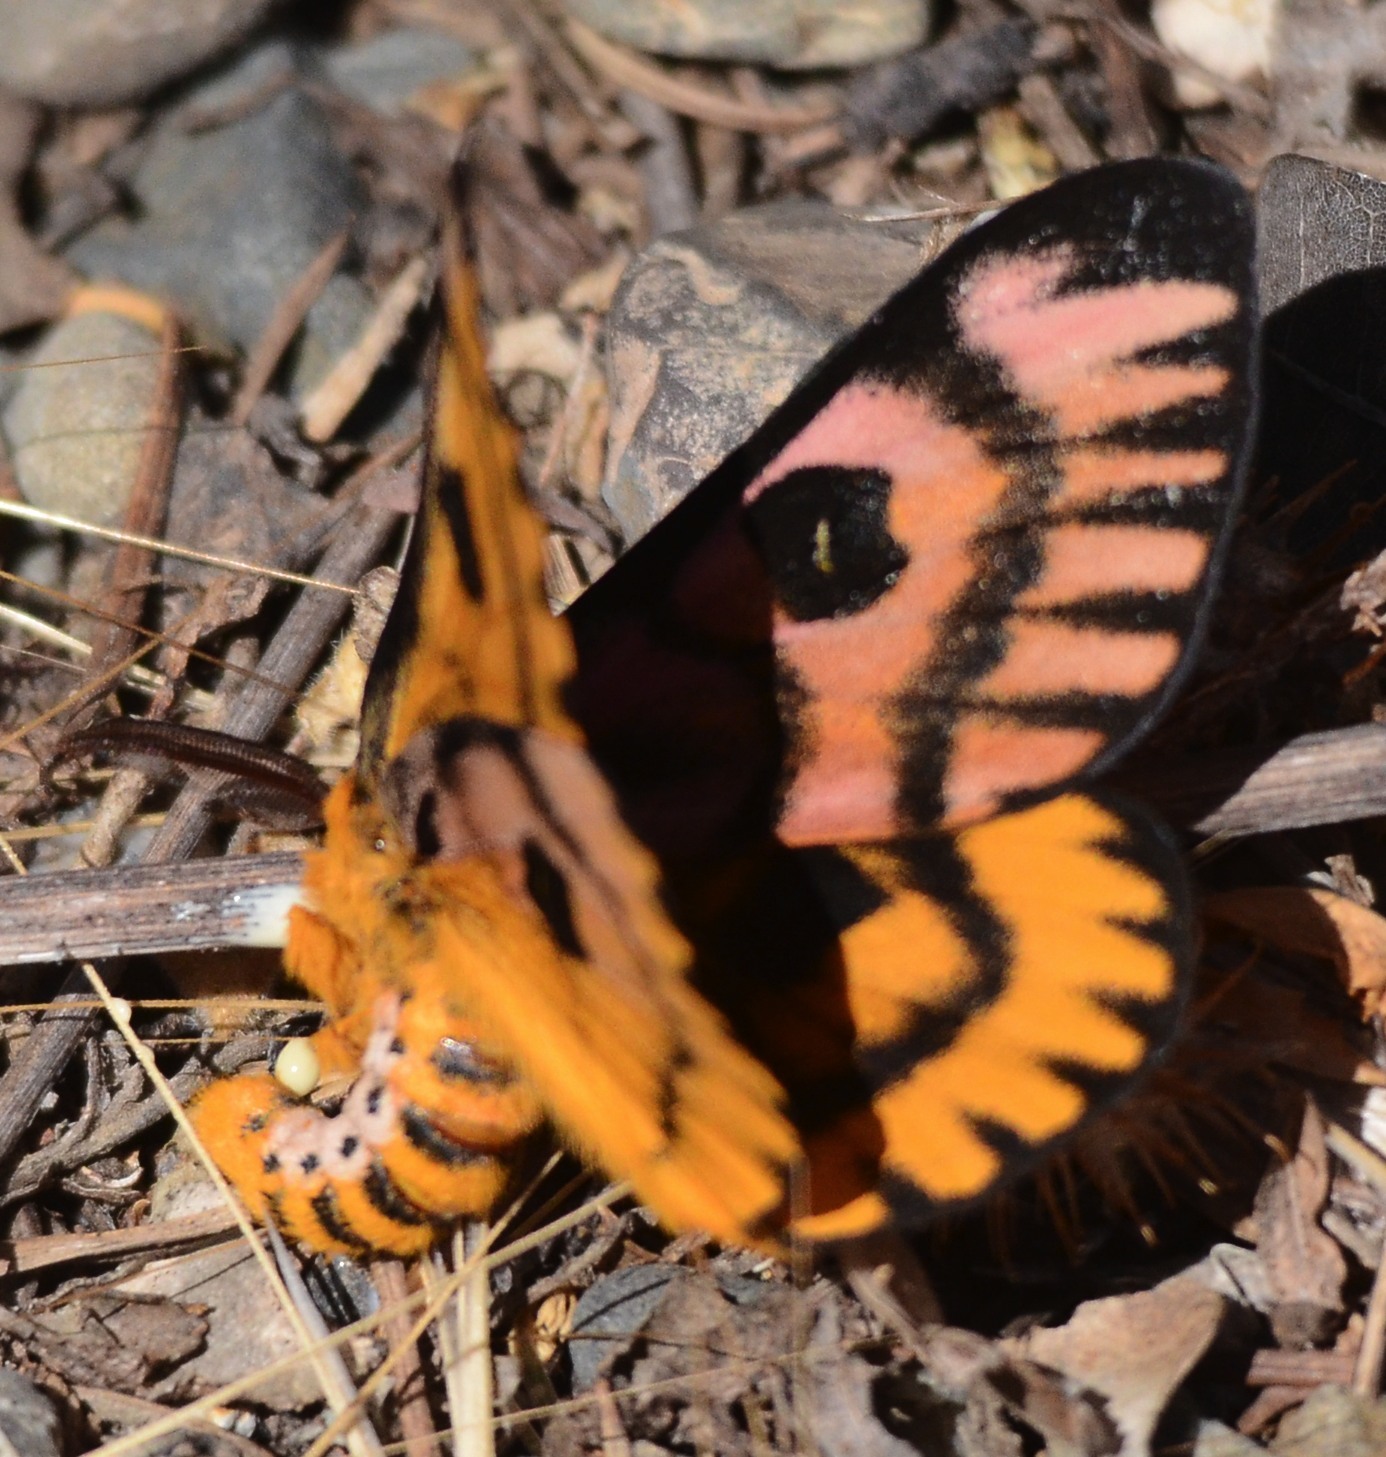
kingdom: Animalia
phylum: Arthropoda
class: Insecta
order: Lepidoptera
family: Saturniidae
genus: Hemileuca
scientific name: Hemileuca eglanterina
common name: Western sheepmoth
